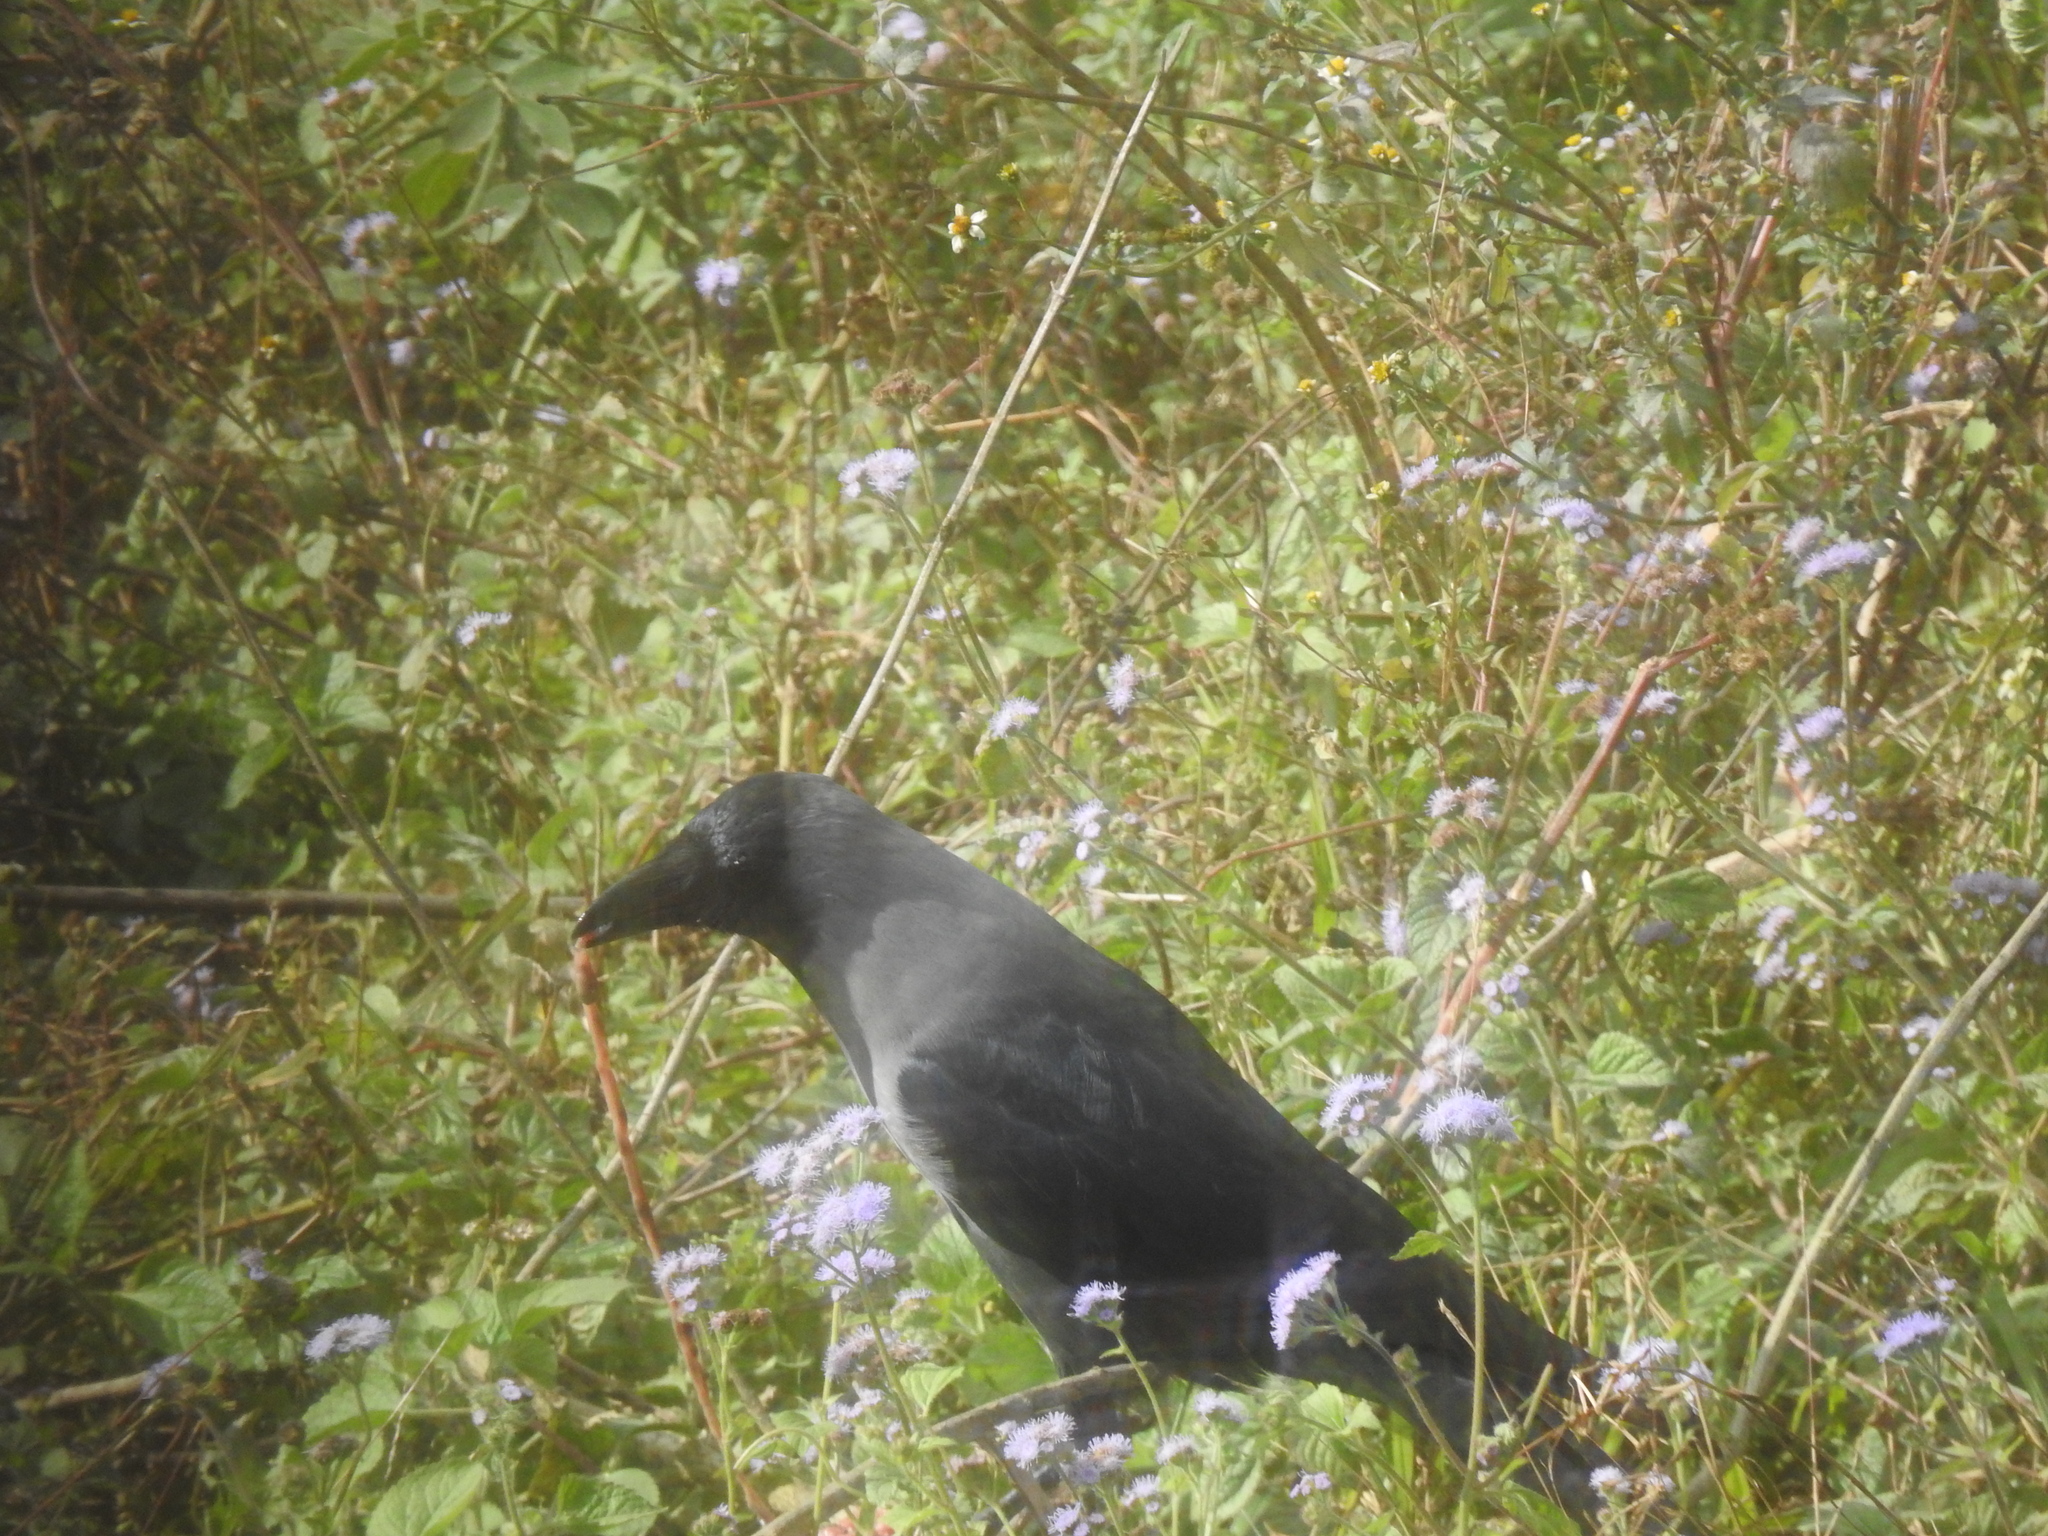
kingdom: Animalia
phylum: Chordata
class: Aves
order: Passeriformes
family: Corvidae
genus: Corvus
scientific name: Corvus splendens
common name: House crow
